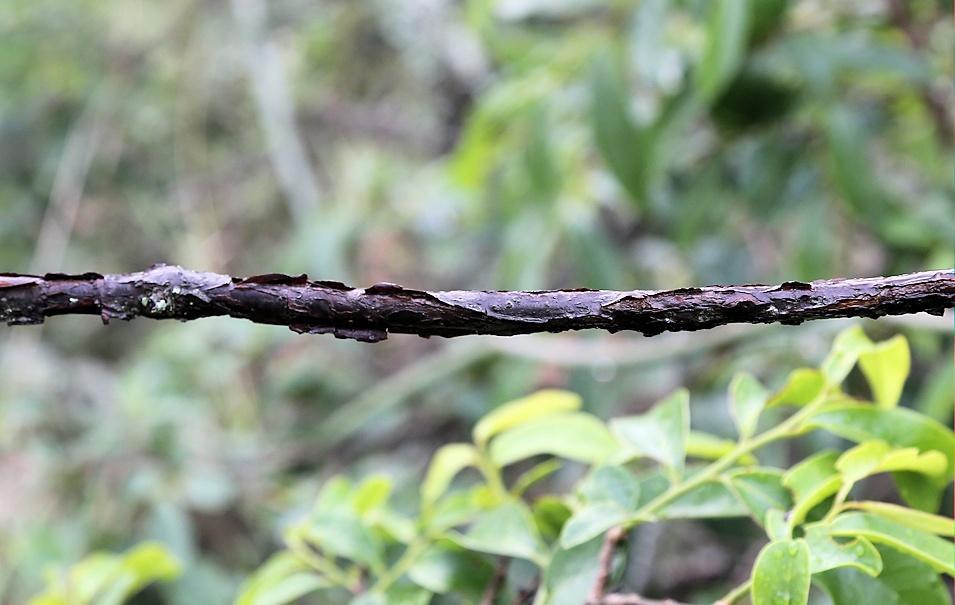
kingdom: Plantae
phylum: Tracheophyta
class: Magnoliopsida
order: Gentianales
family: Apocynaceae
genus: Cryptolepis
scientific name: Cryptolepis cryptolepioides
